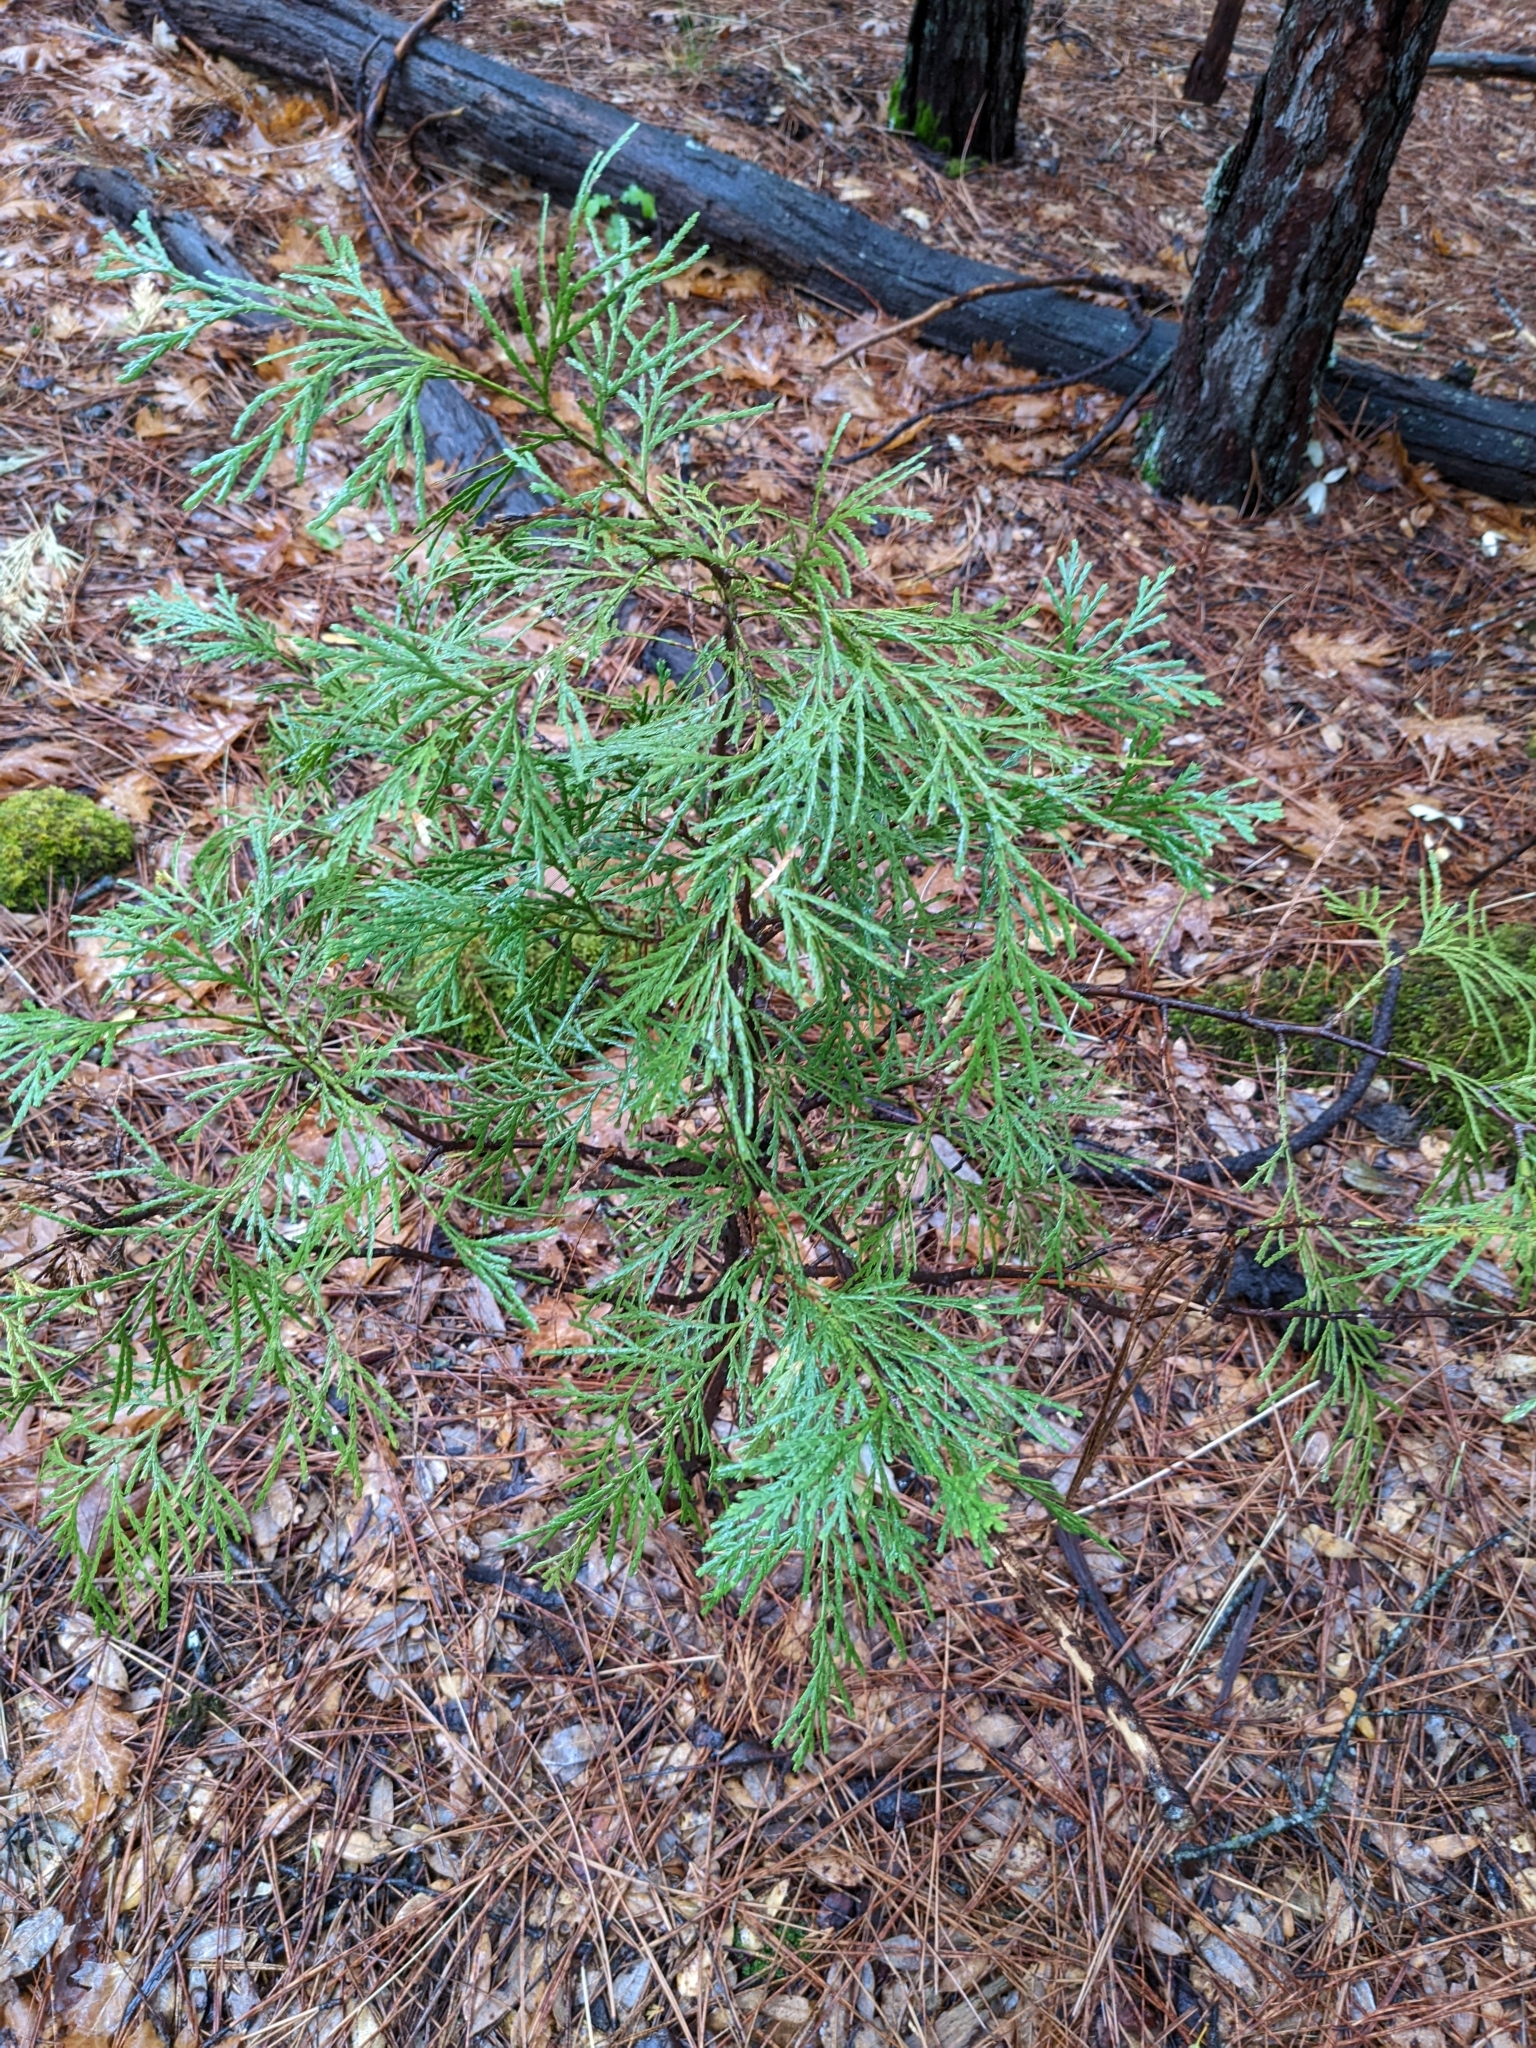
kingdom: Plantae
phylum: Tracheophyta
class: Pinopsida
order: Pinales
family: Cupressaceae
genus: Calocedrus
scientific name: Calocedrus decurrens
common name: Californian incense-cedar
